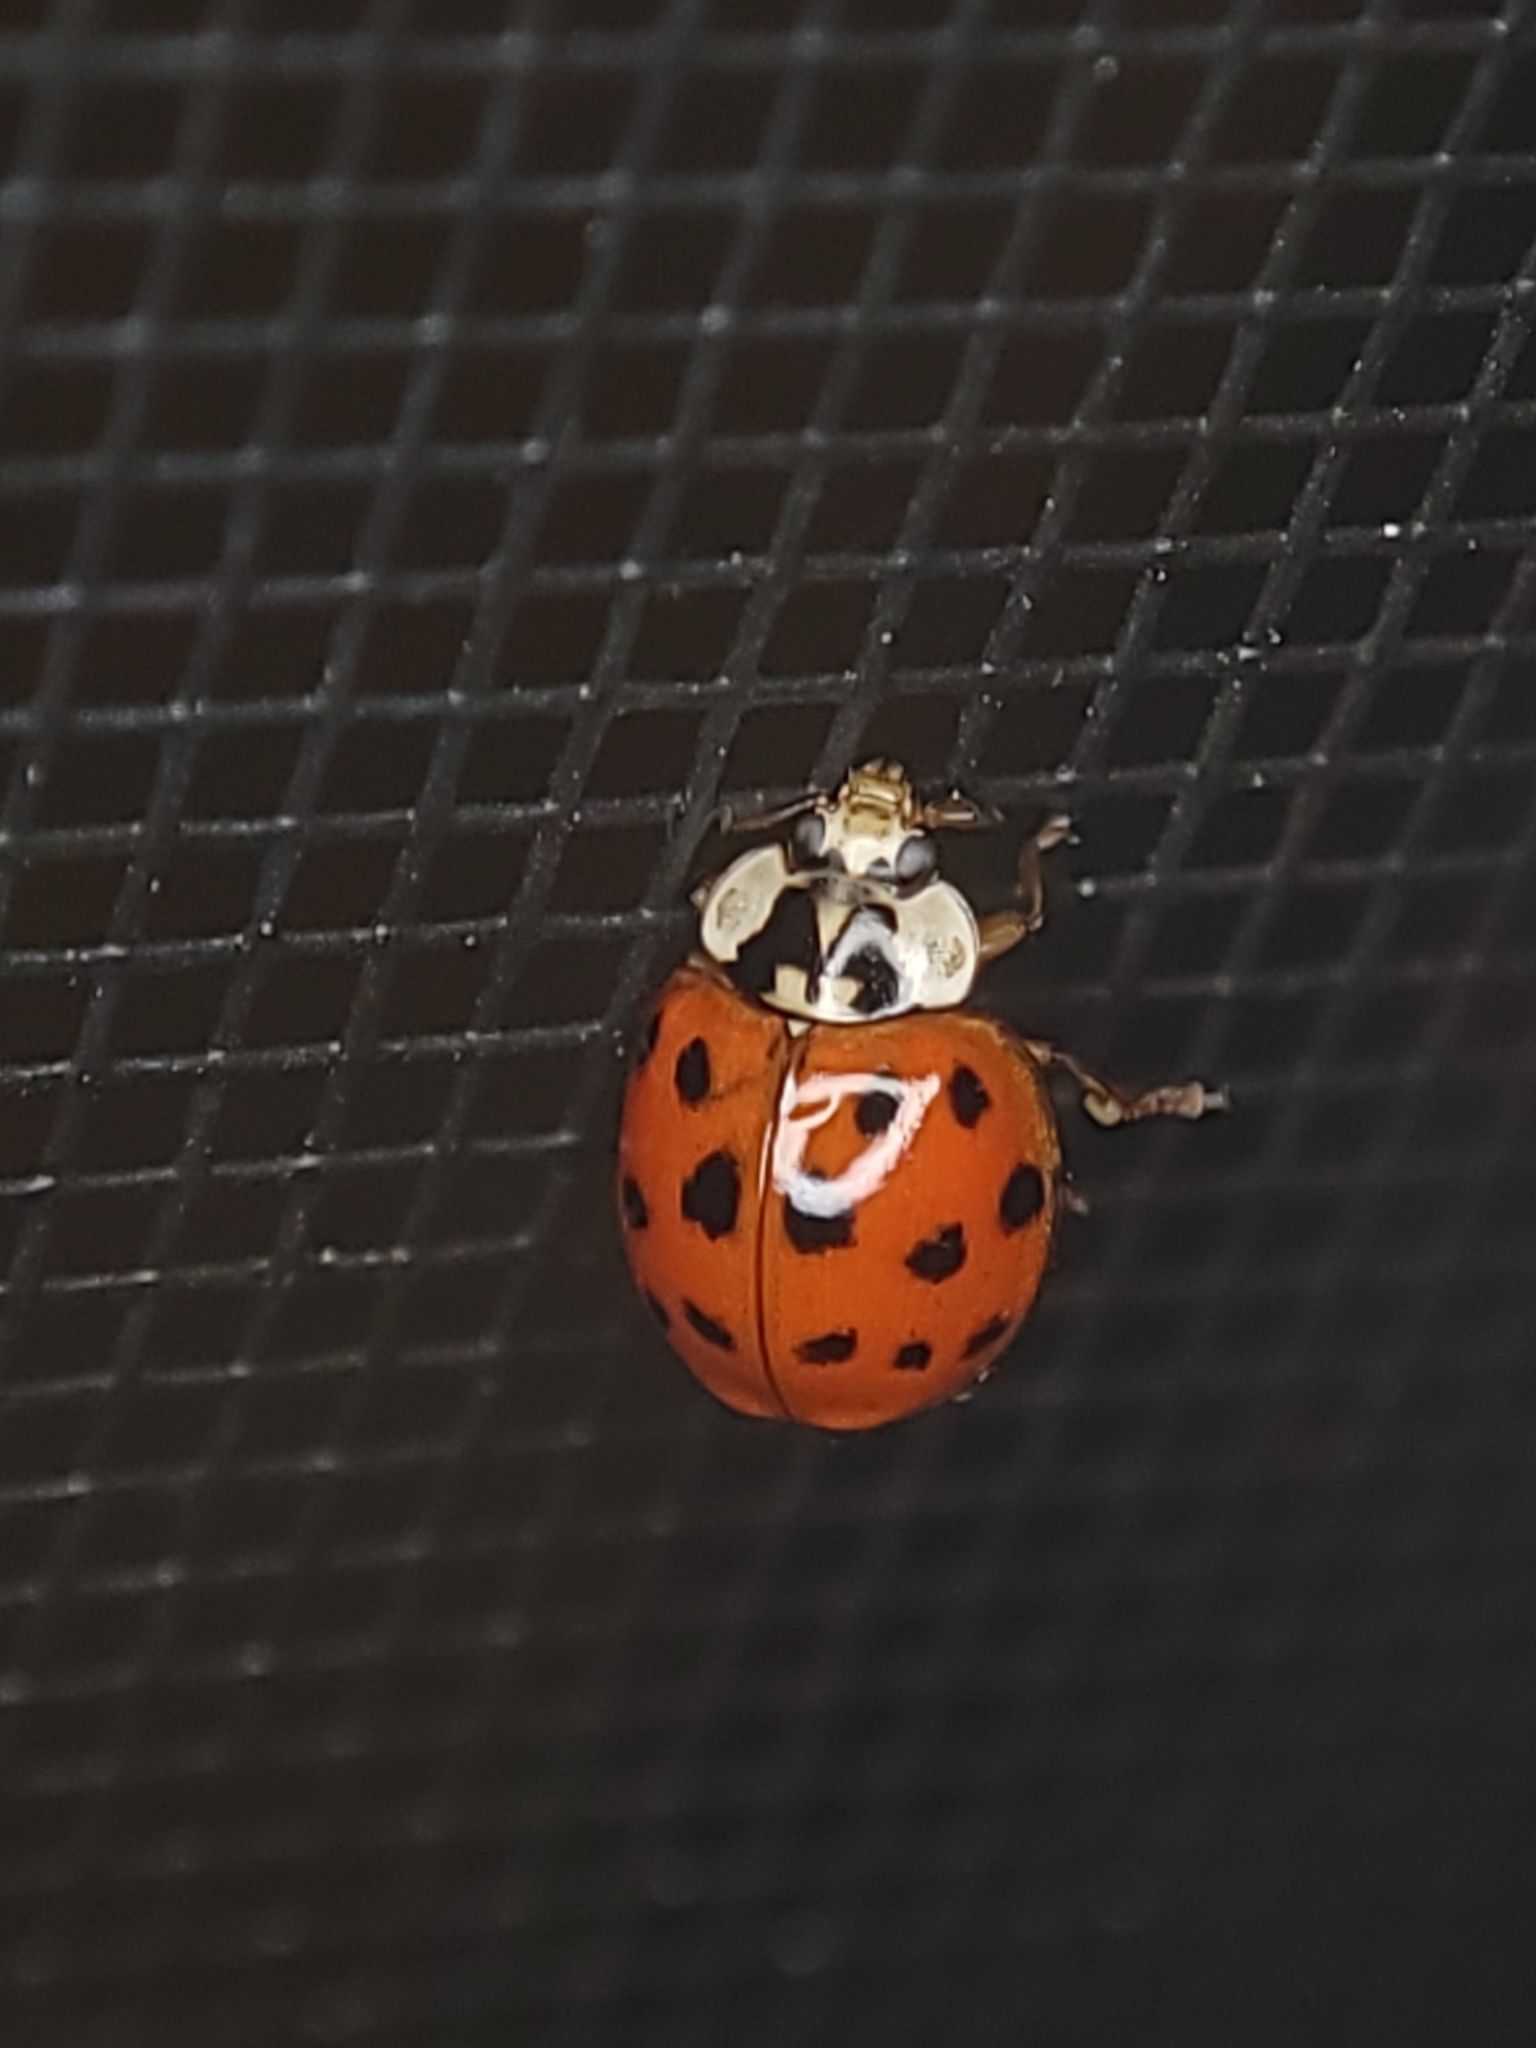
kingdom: Animalia
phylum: Arthropoda
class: Insecta
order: Coleoptera
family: Coccinellidae
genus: Harmonia
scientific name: Harmonia axyridis
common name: Harlequin ladybird
